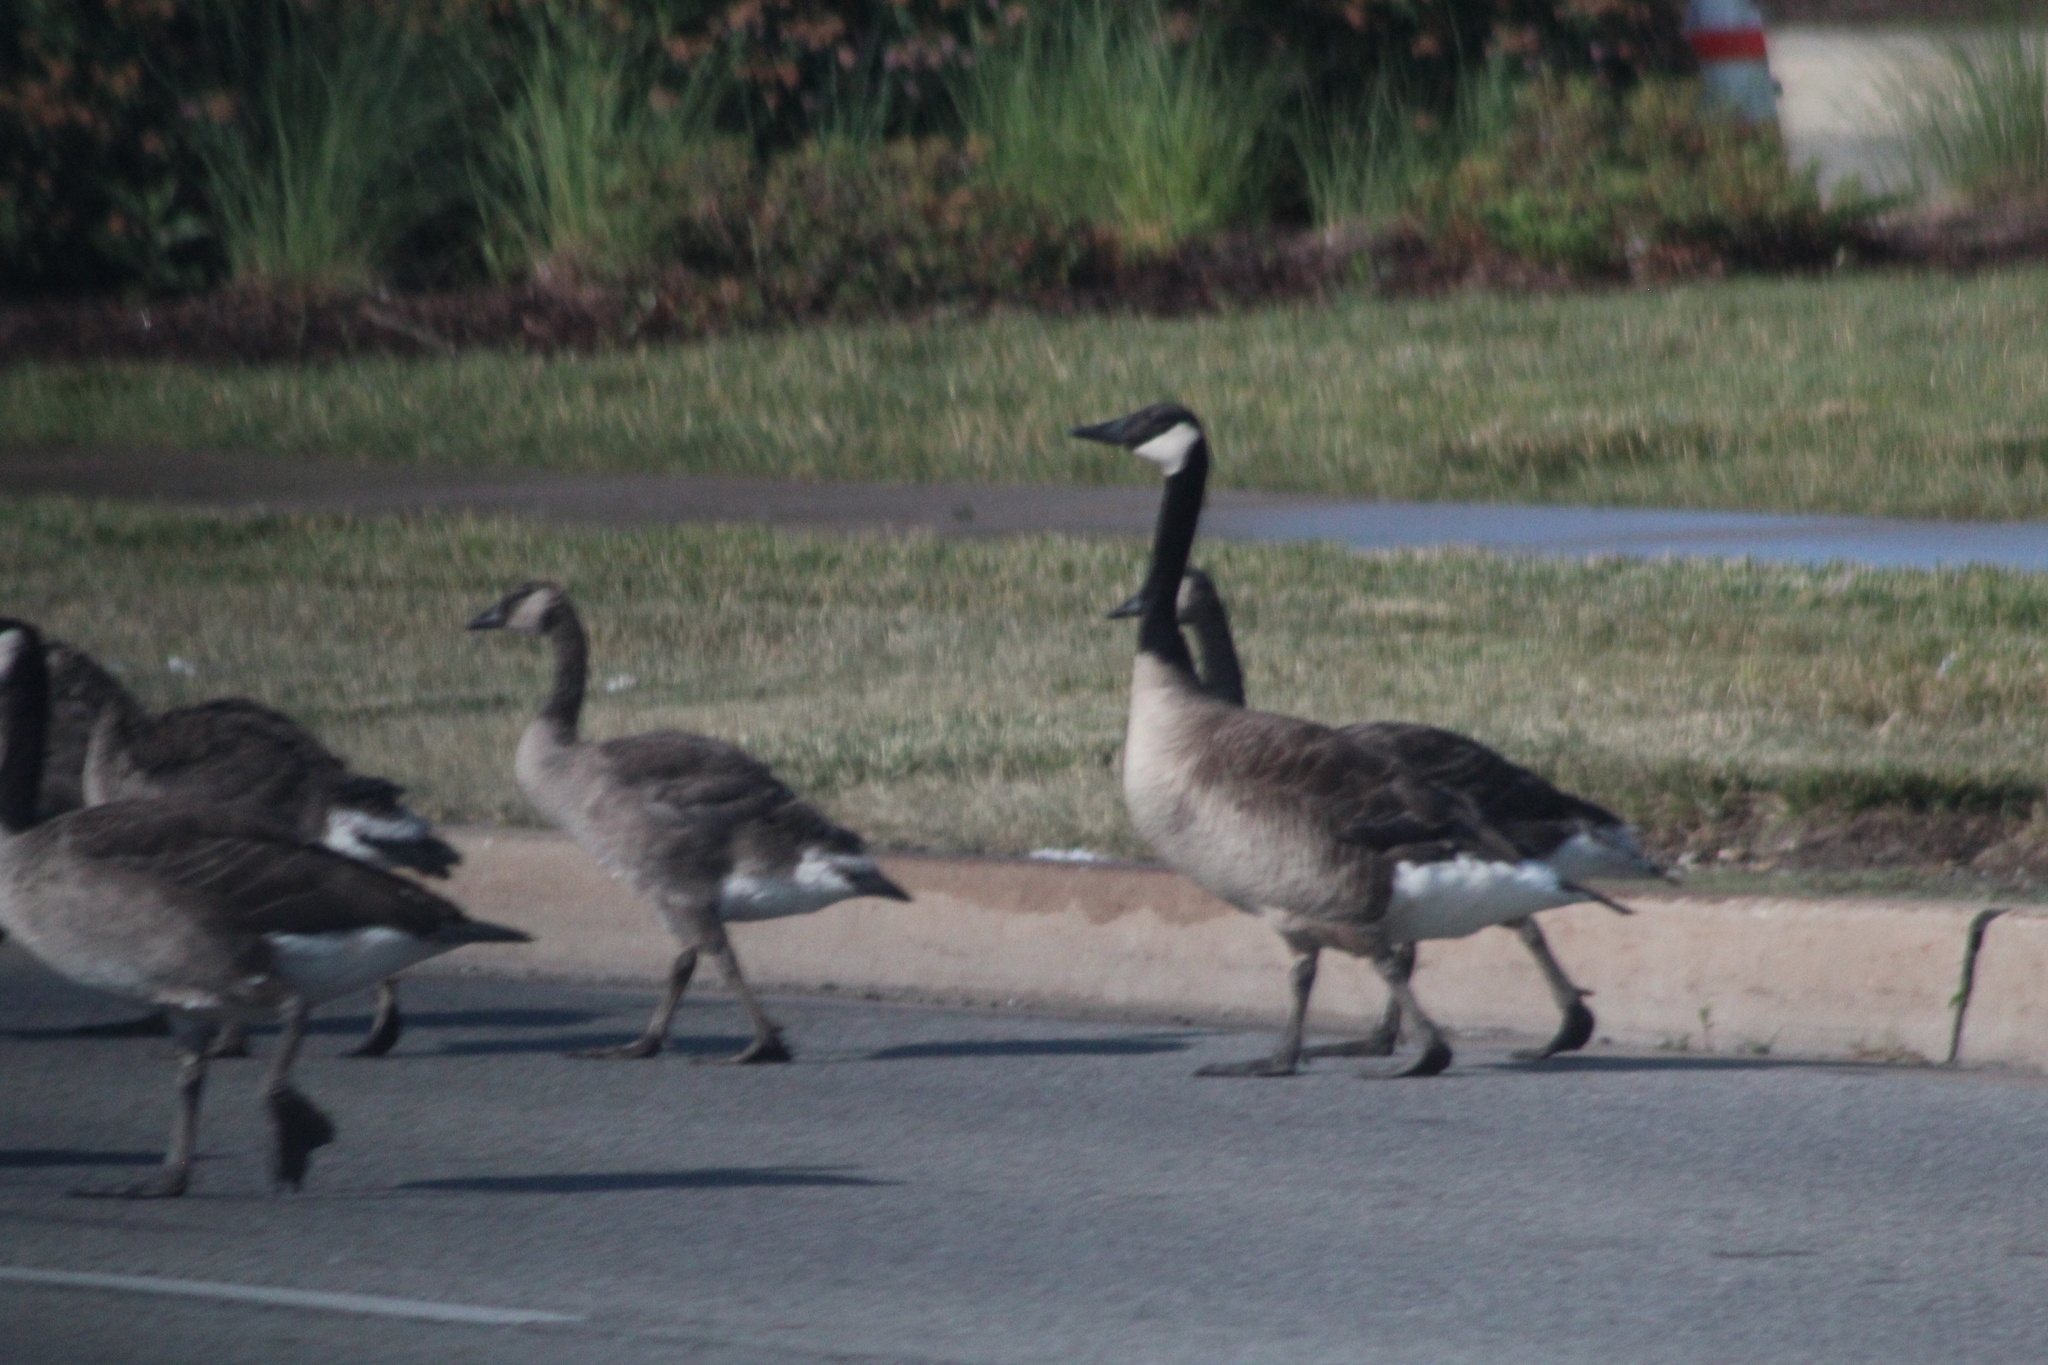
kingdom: Animalia
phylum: Chordata
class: Aves
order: Anseriformes
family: Anatidae
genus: Branta
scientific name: Branta canadensis
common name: Canada goose
